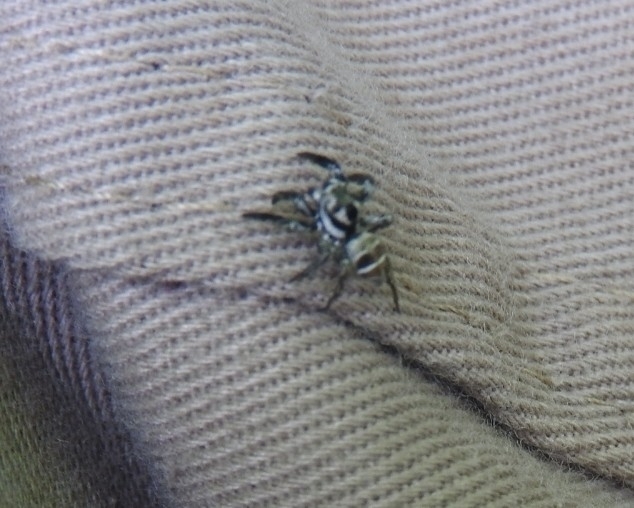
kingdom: Animalia
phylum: Arthropoda
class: Arachnida
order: Araneae
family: Salticidae
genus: Corythalia
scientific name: Corythalia opima
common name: Jumping spiders
